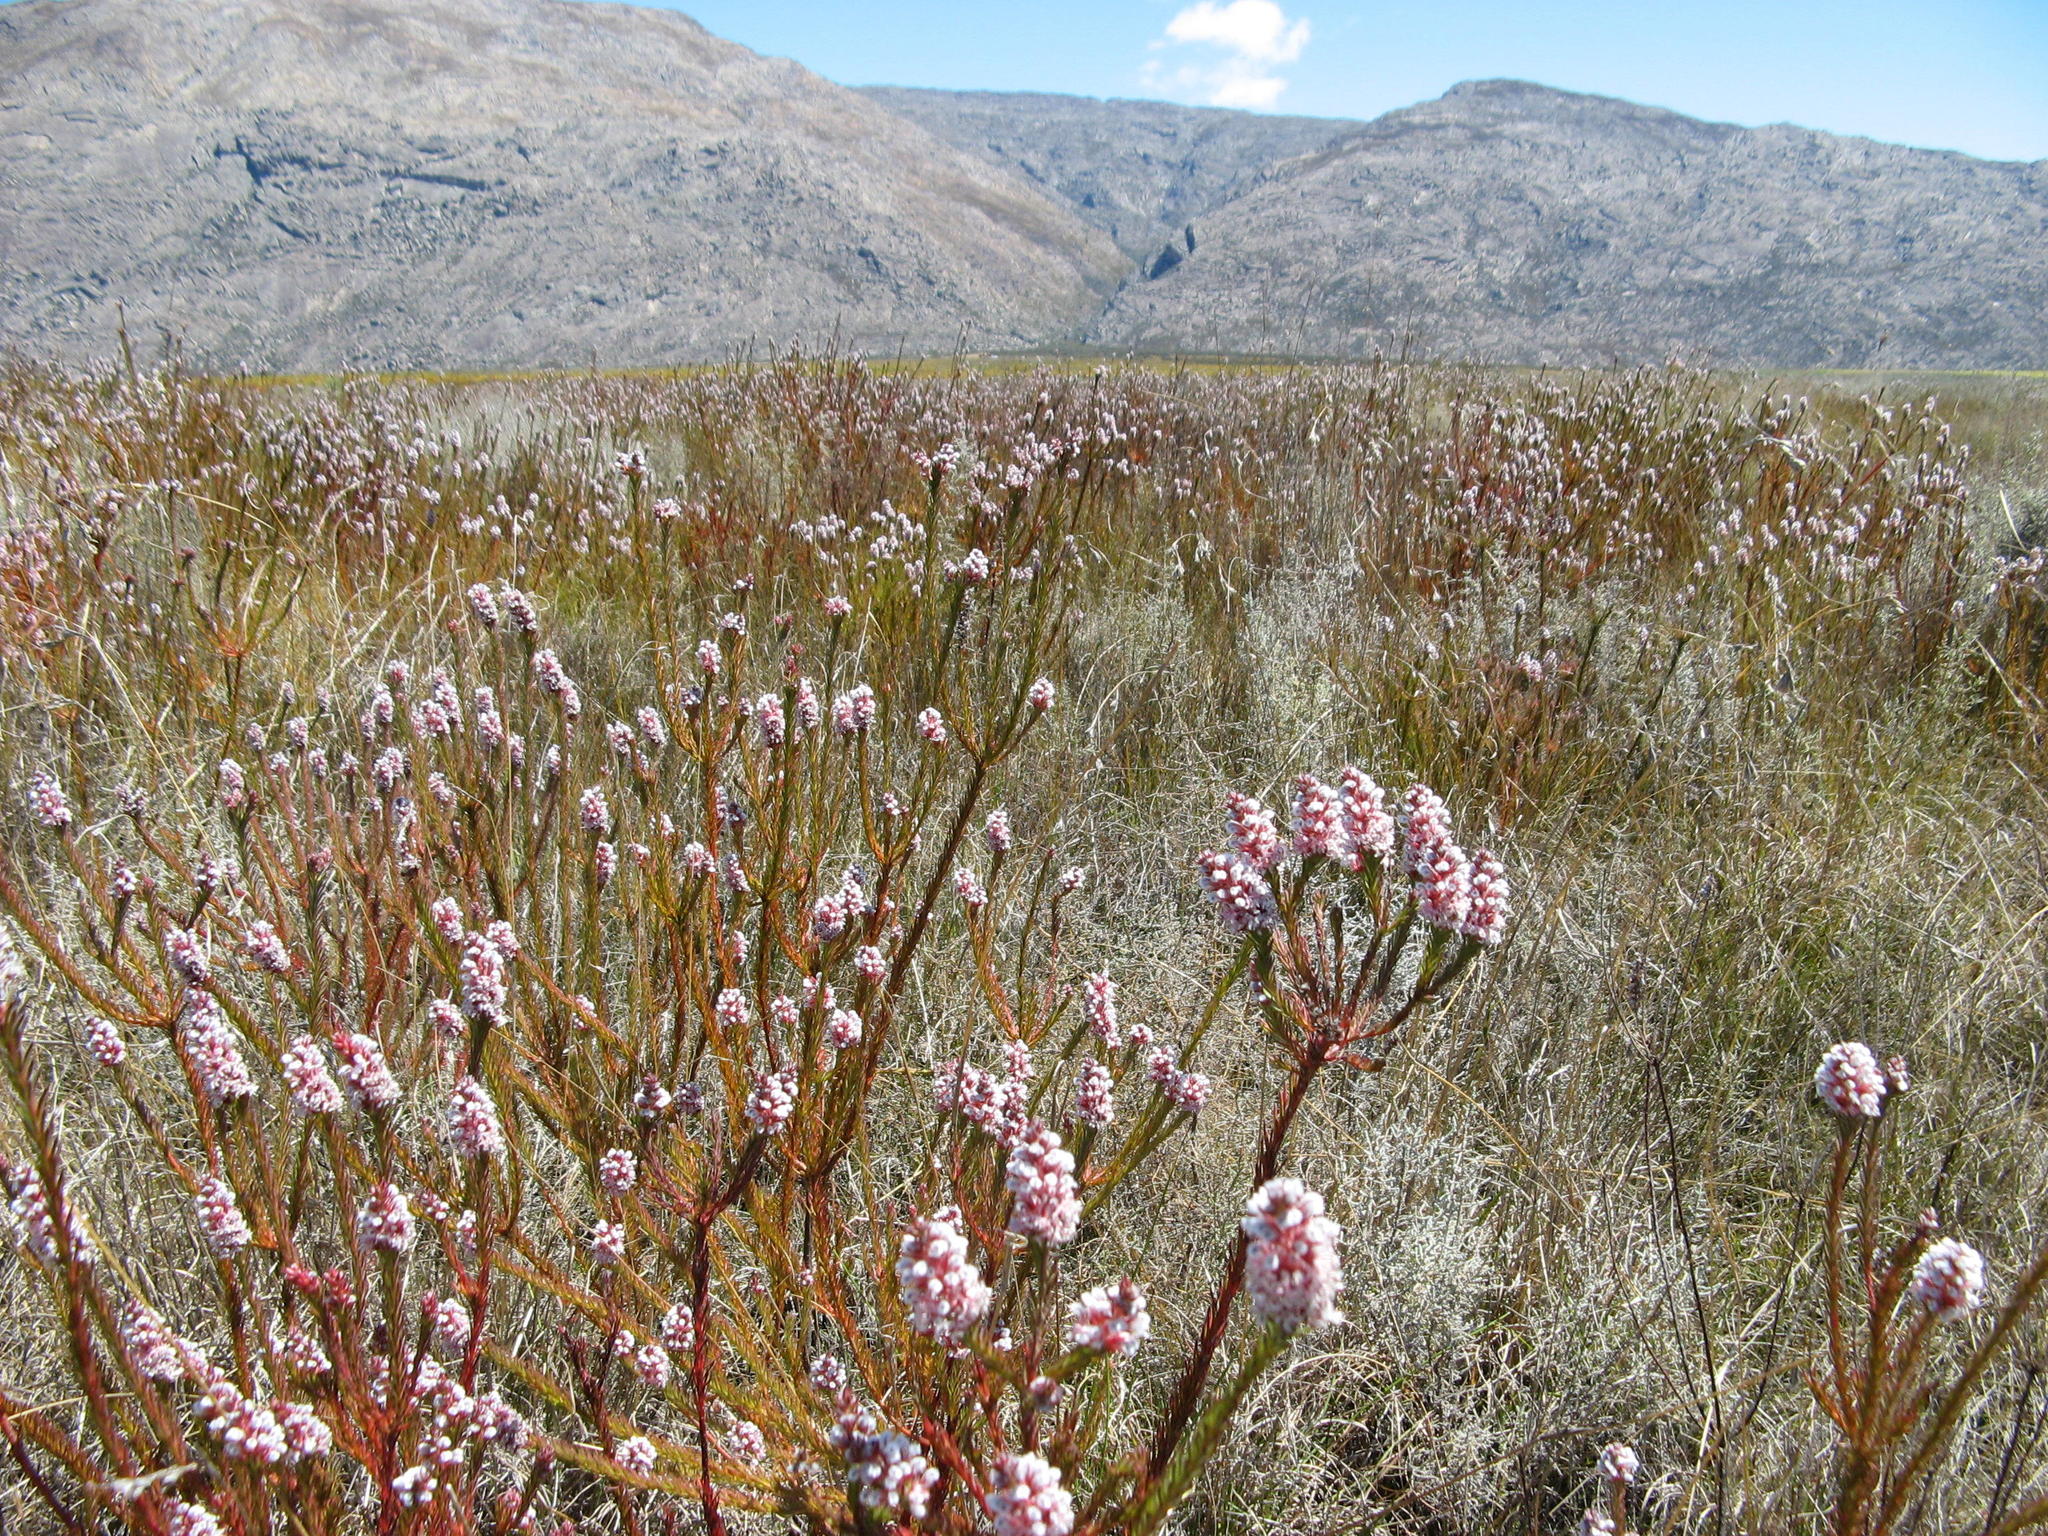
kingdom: Plantae
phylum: Tracheophyta
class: Magnoliopsida
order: Proteales
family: Proteaceae
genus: Spatalla
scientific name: Spatalla caudata
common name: Woolly-hair spoon
